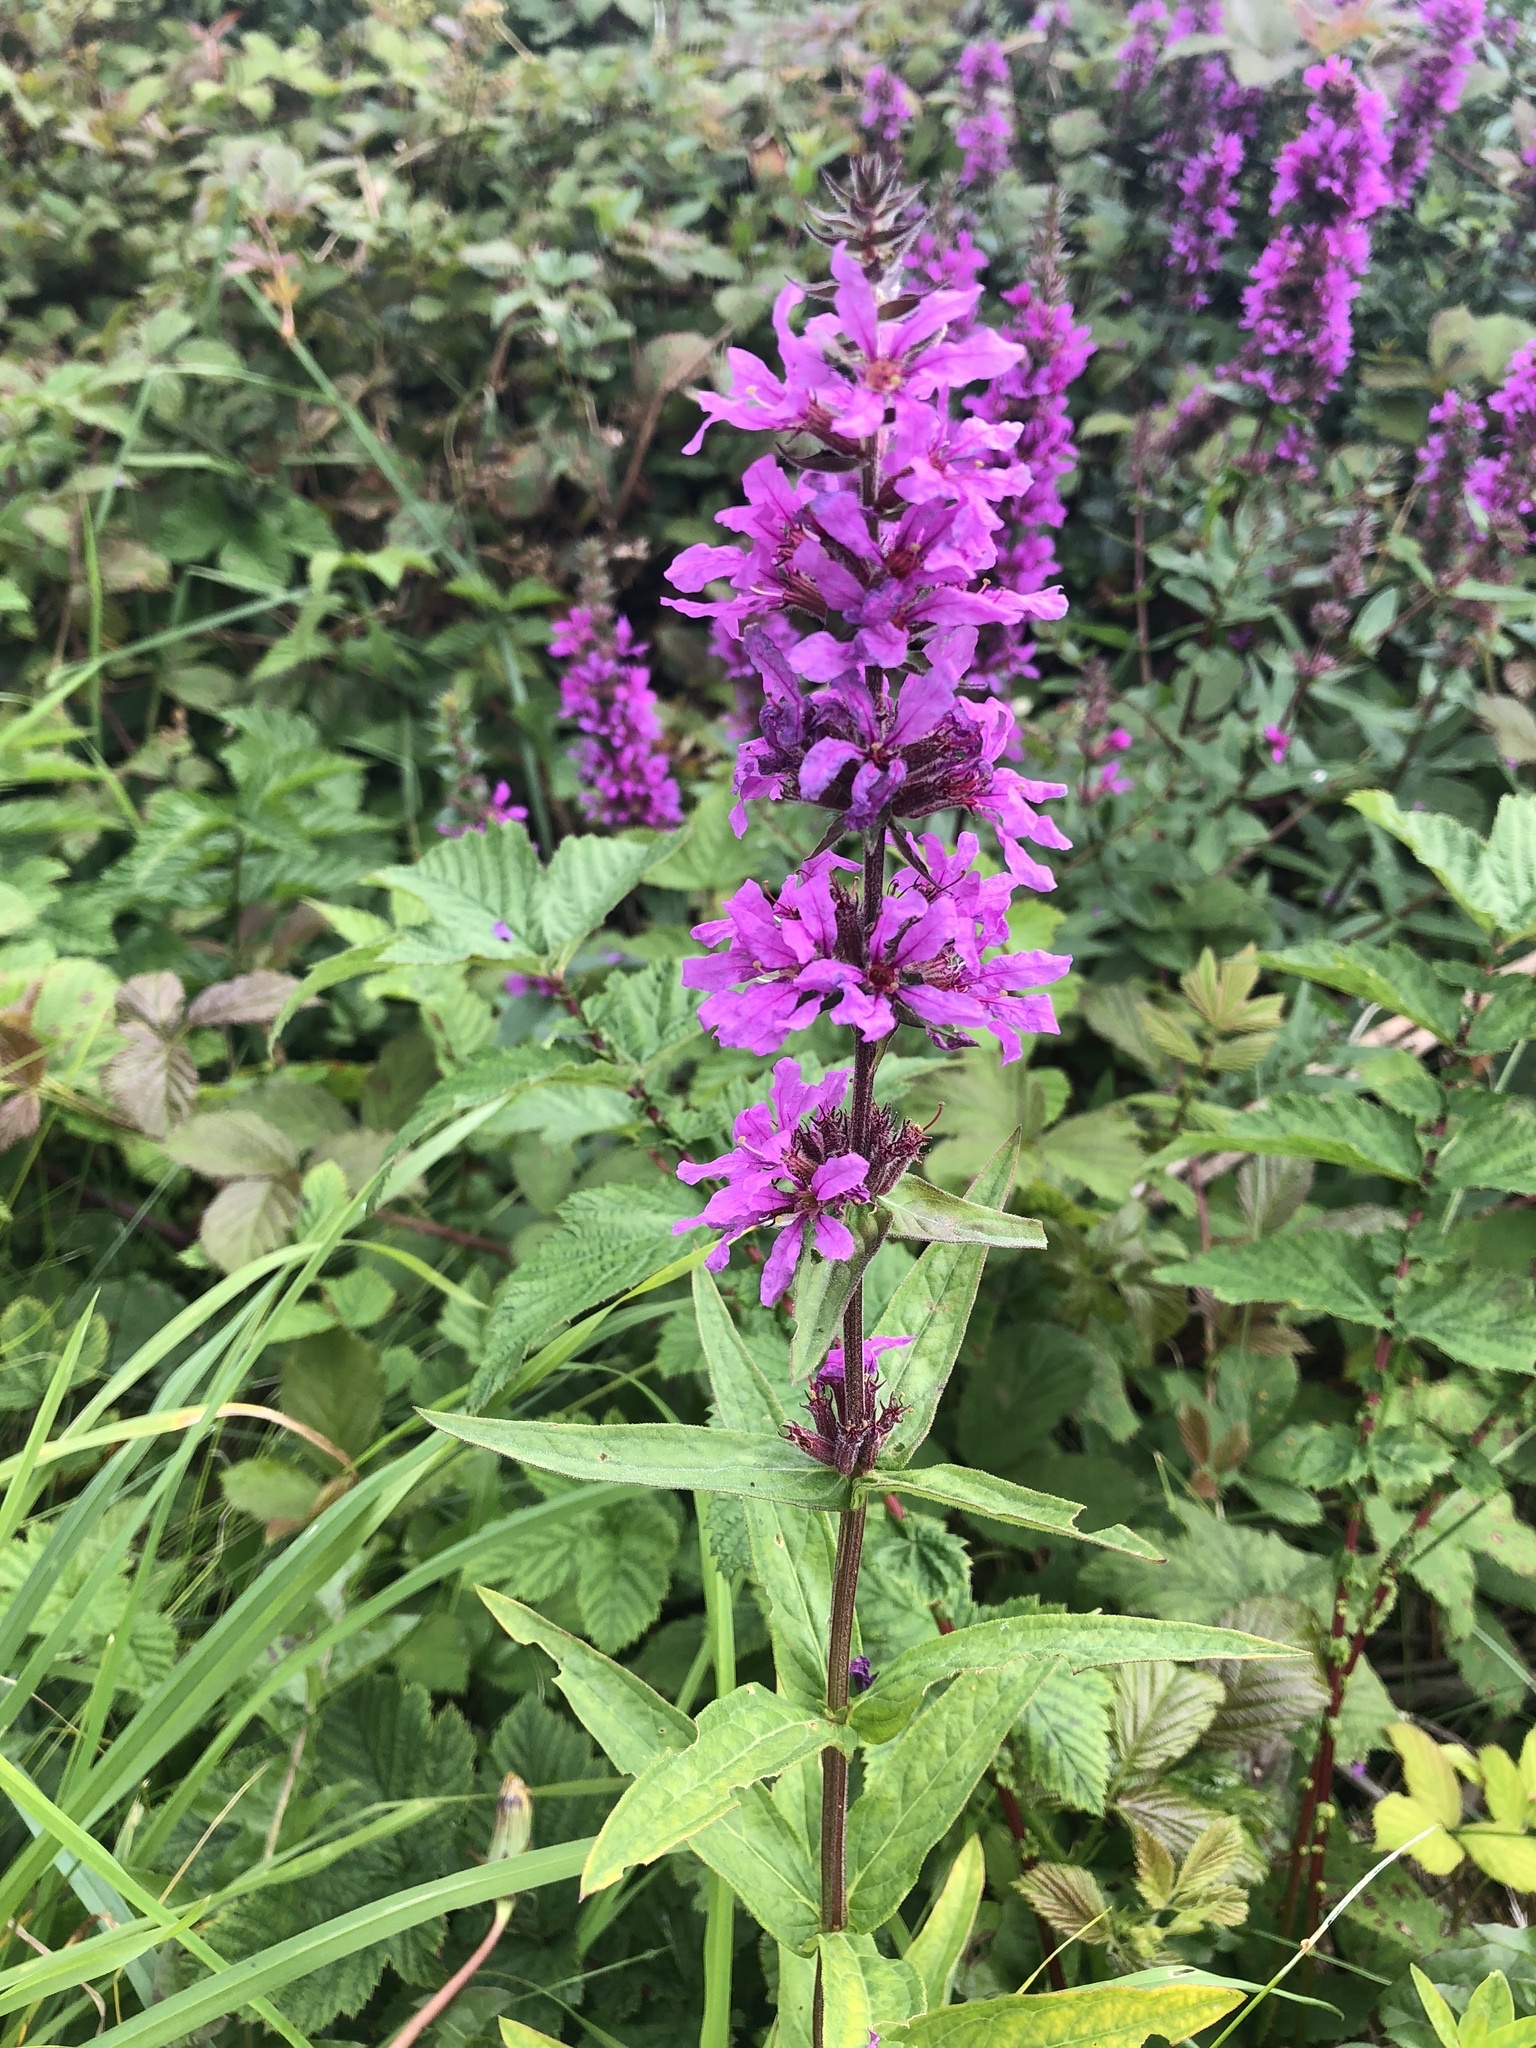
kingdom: Plantae
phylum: Tracheophyta
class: Magnoliopsida
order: Myrtales
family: Lythraceae
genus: Lythrum
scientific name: Lythrum salicaria
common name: Purple loosestrife
